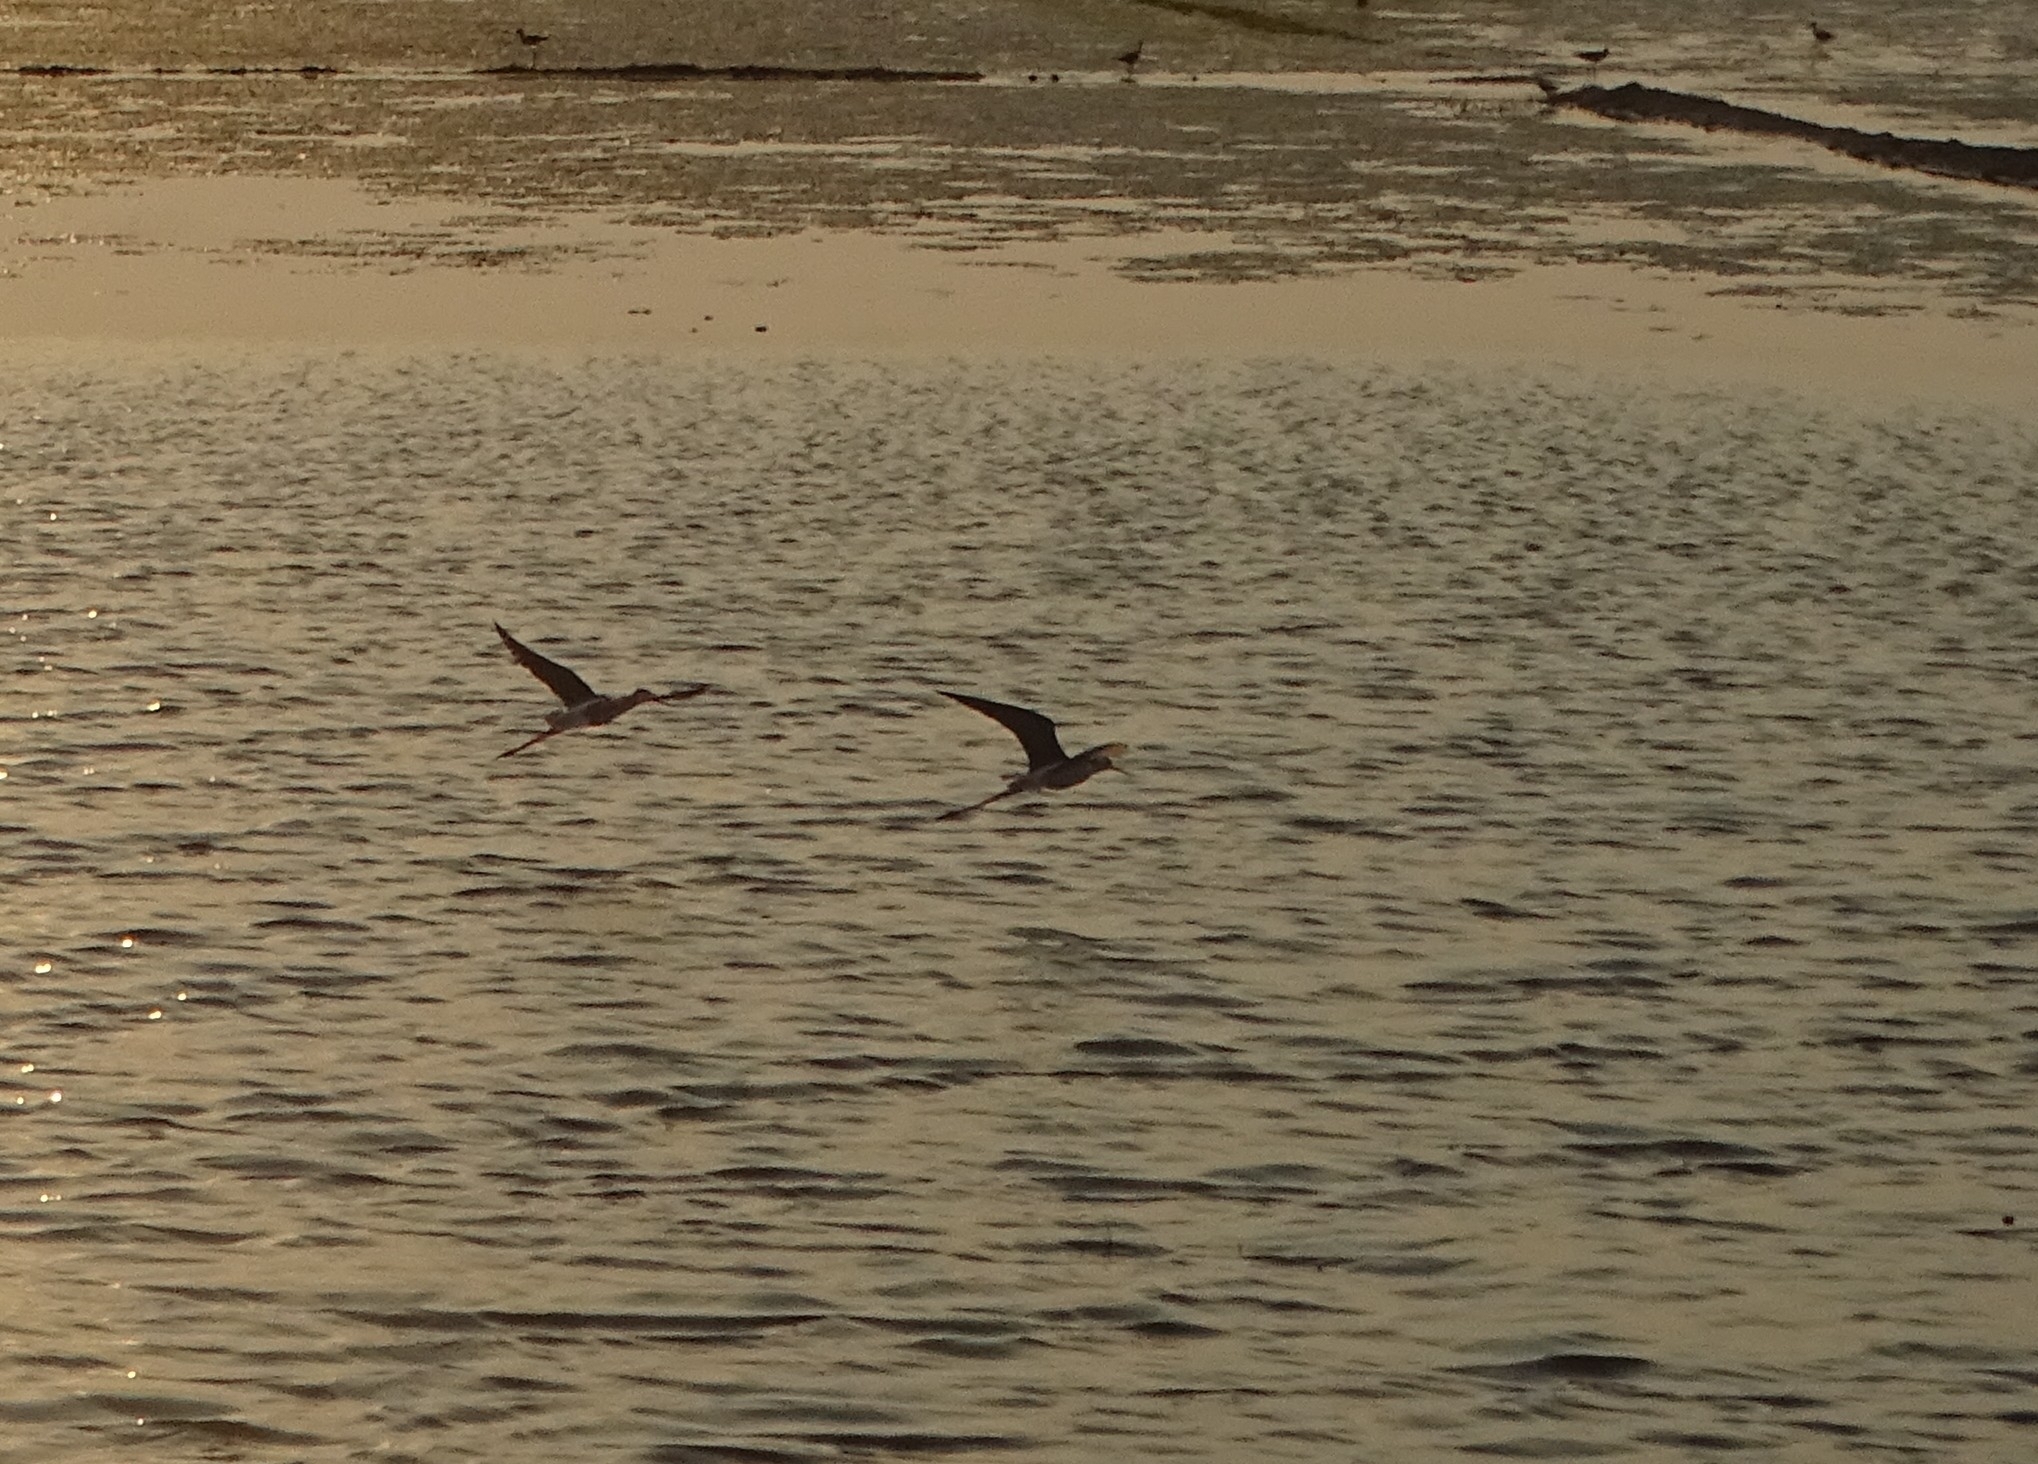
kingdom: Animalia
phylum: Chordata
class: Aves
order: Charadriiformes
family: Recurvirostridae
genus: Himantopus
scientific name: Himantopus himantopus
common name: Black-winged stilt
